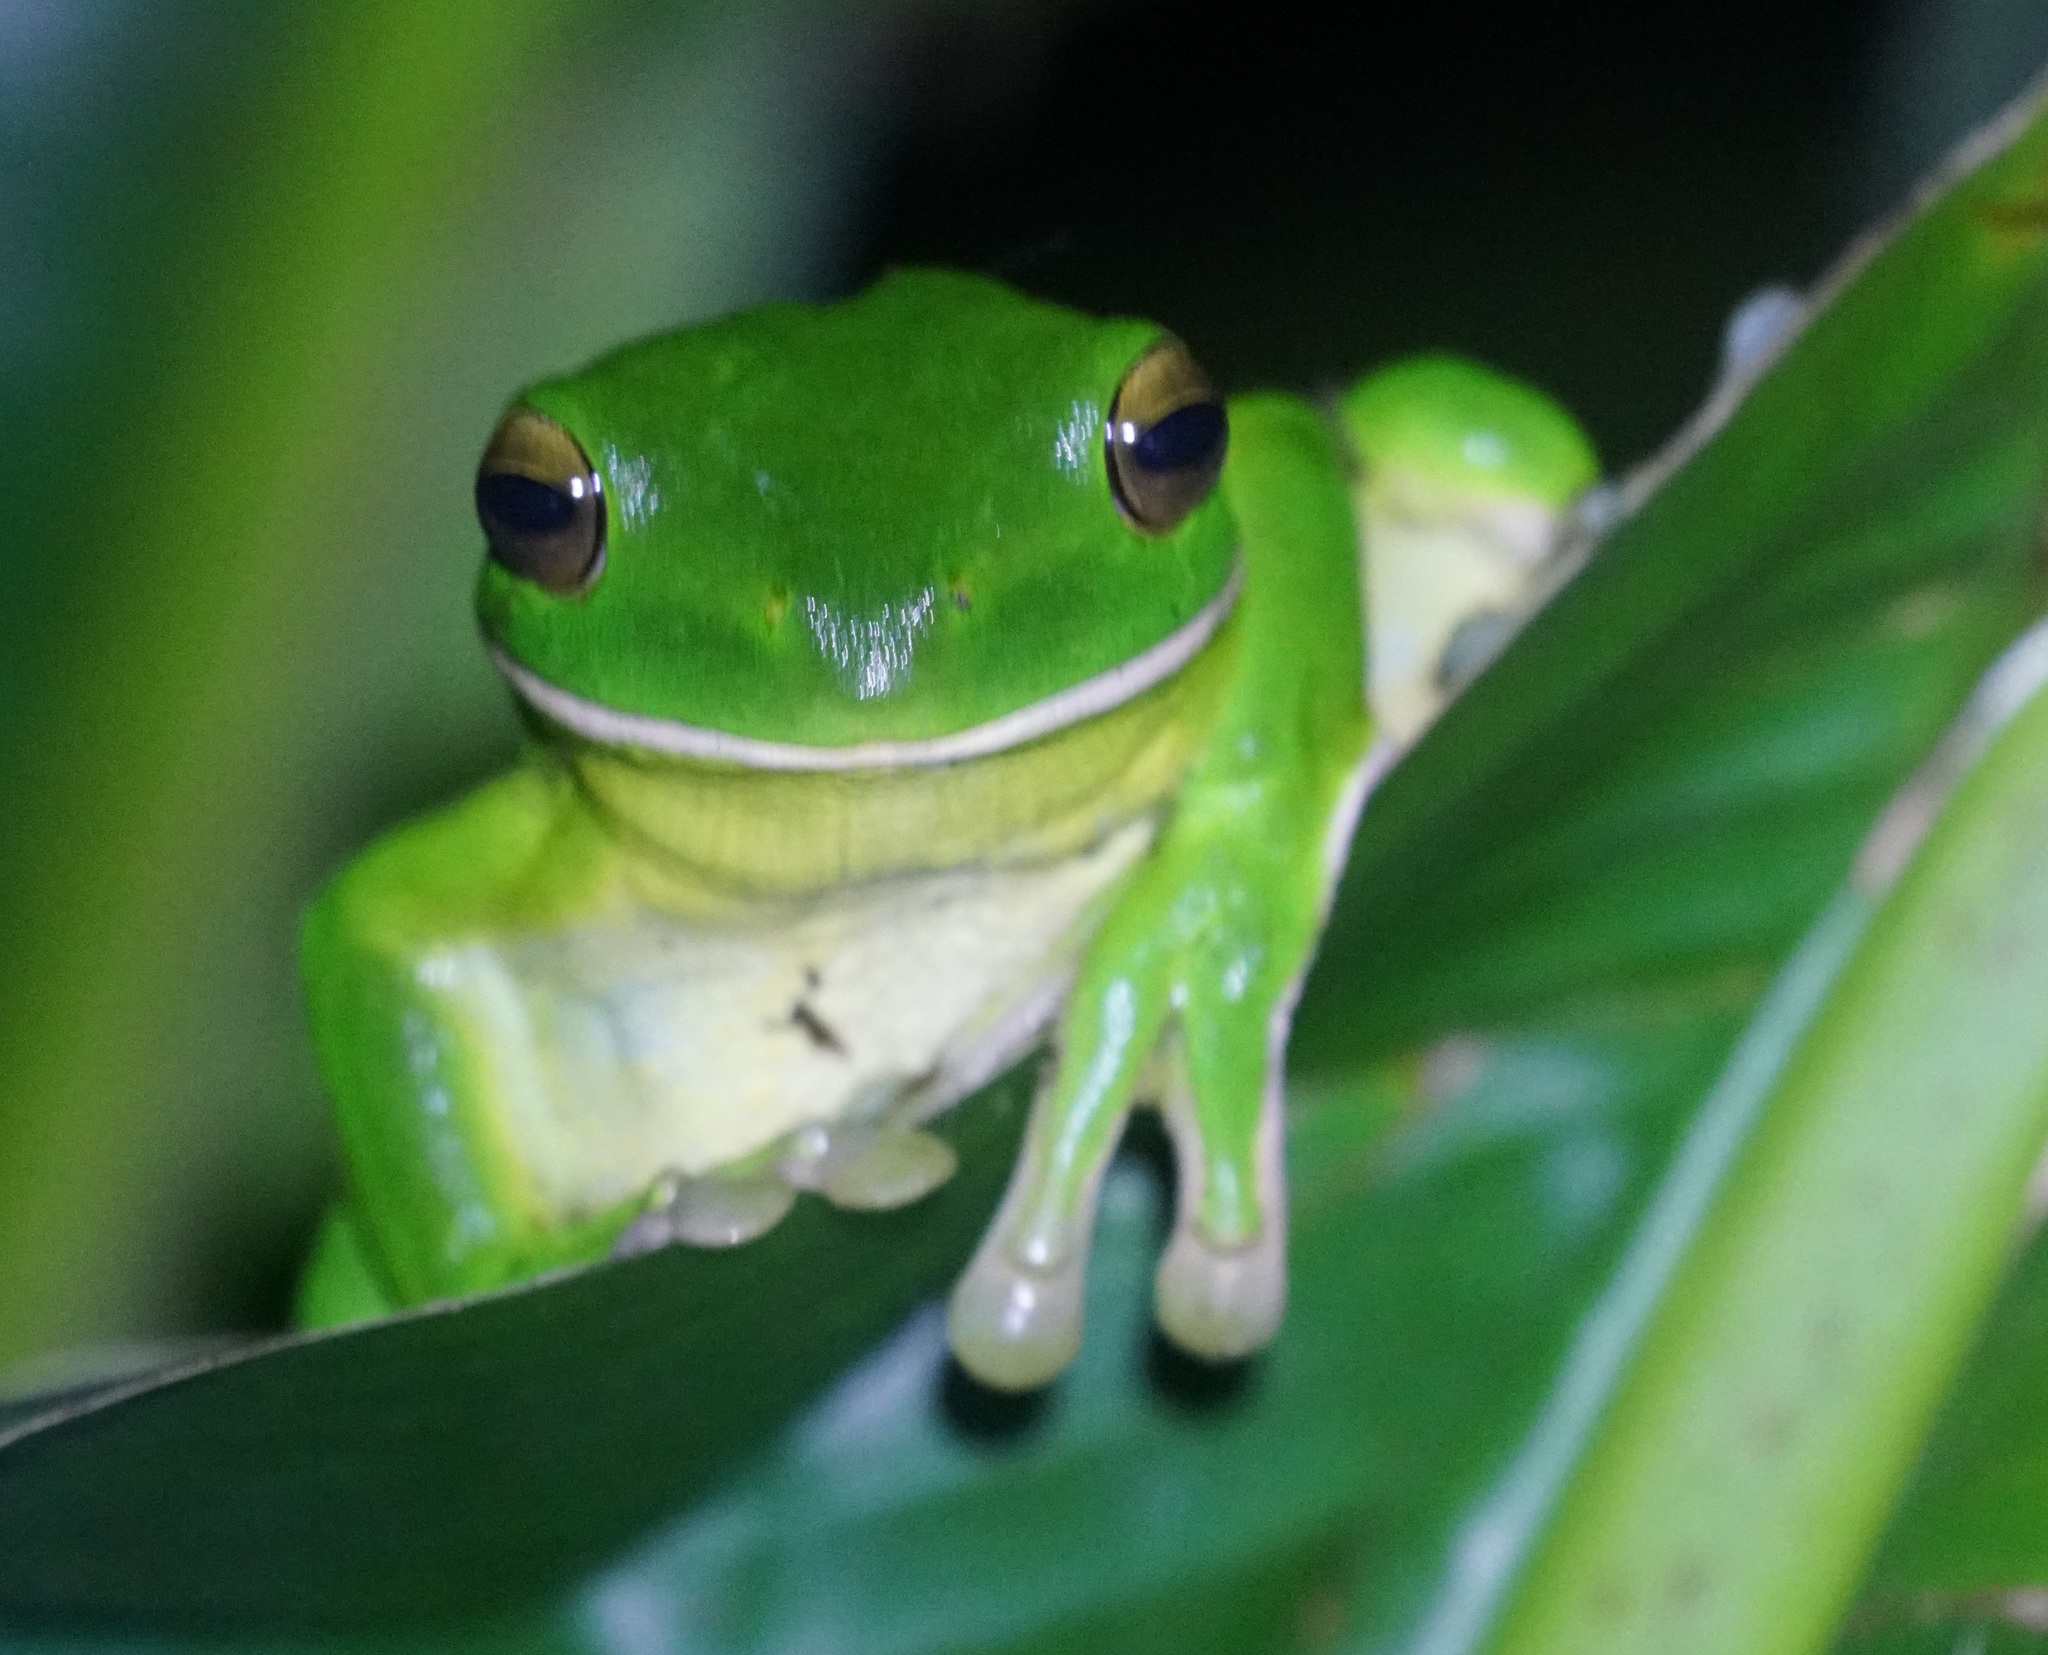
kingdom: Animalia
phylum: Chordata
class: Amphibia
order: Anura
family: Pelodryadidae
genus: Nyctimystes
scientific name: Nyctimystes infrafrenatus
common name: Australian giant treefrog
